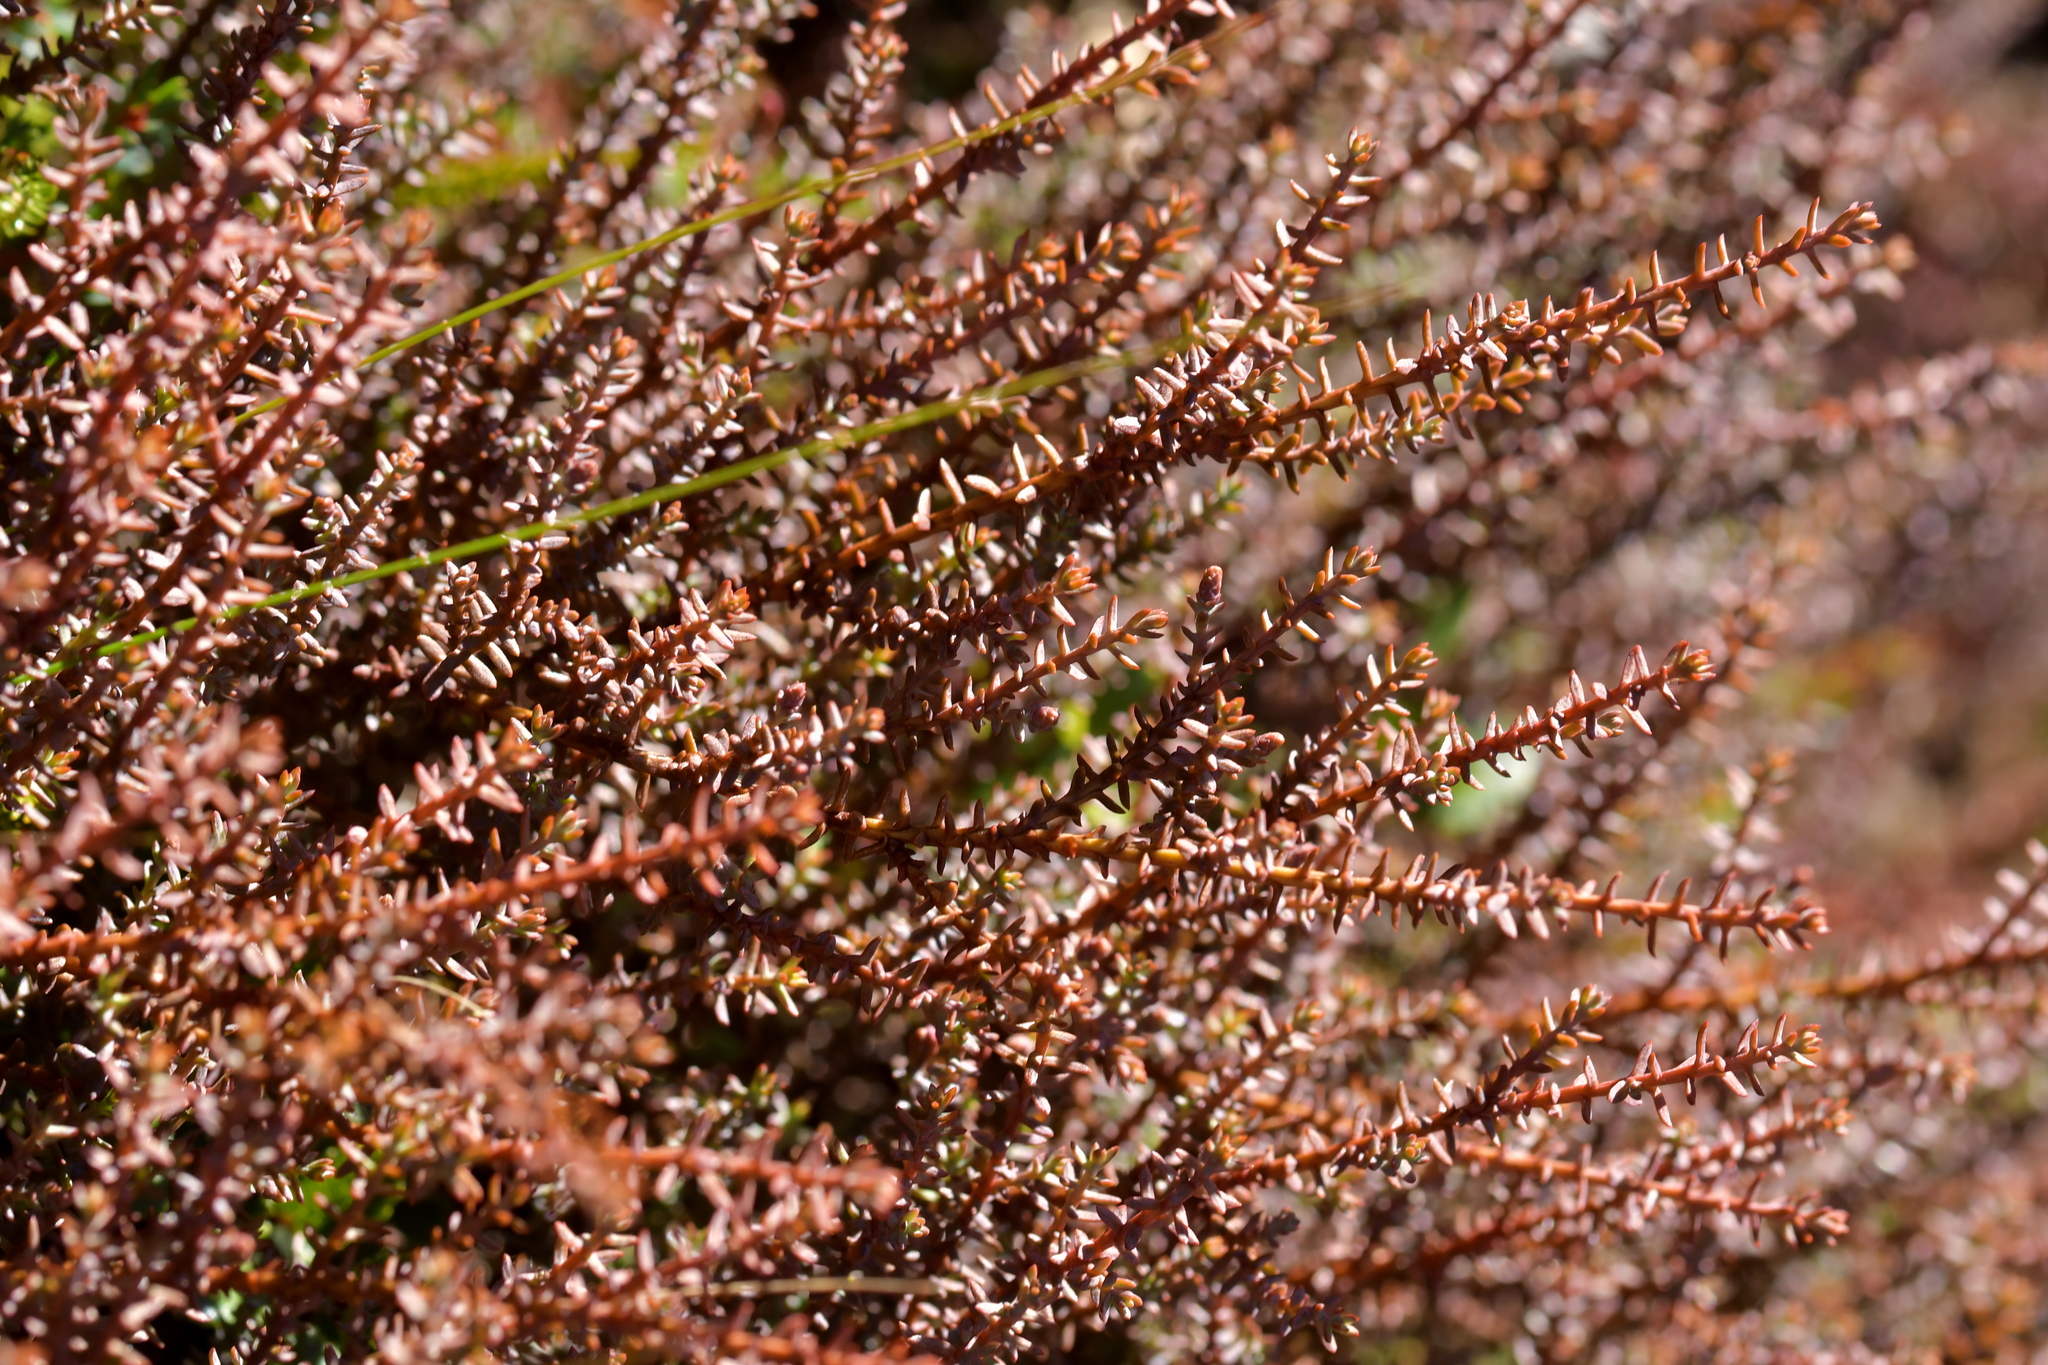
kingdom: Plantae
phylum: Tracheophyta
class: Magnoliopsida
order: Ericales
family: Ericaceae
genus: Androstoma
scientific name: Androstoma empetrifolia
